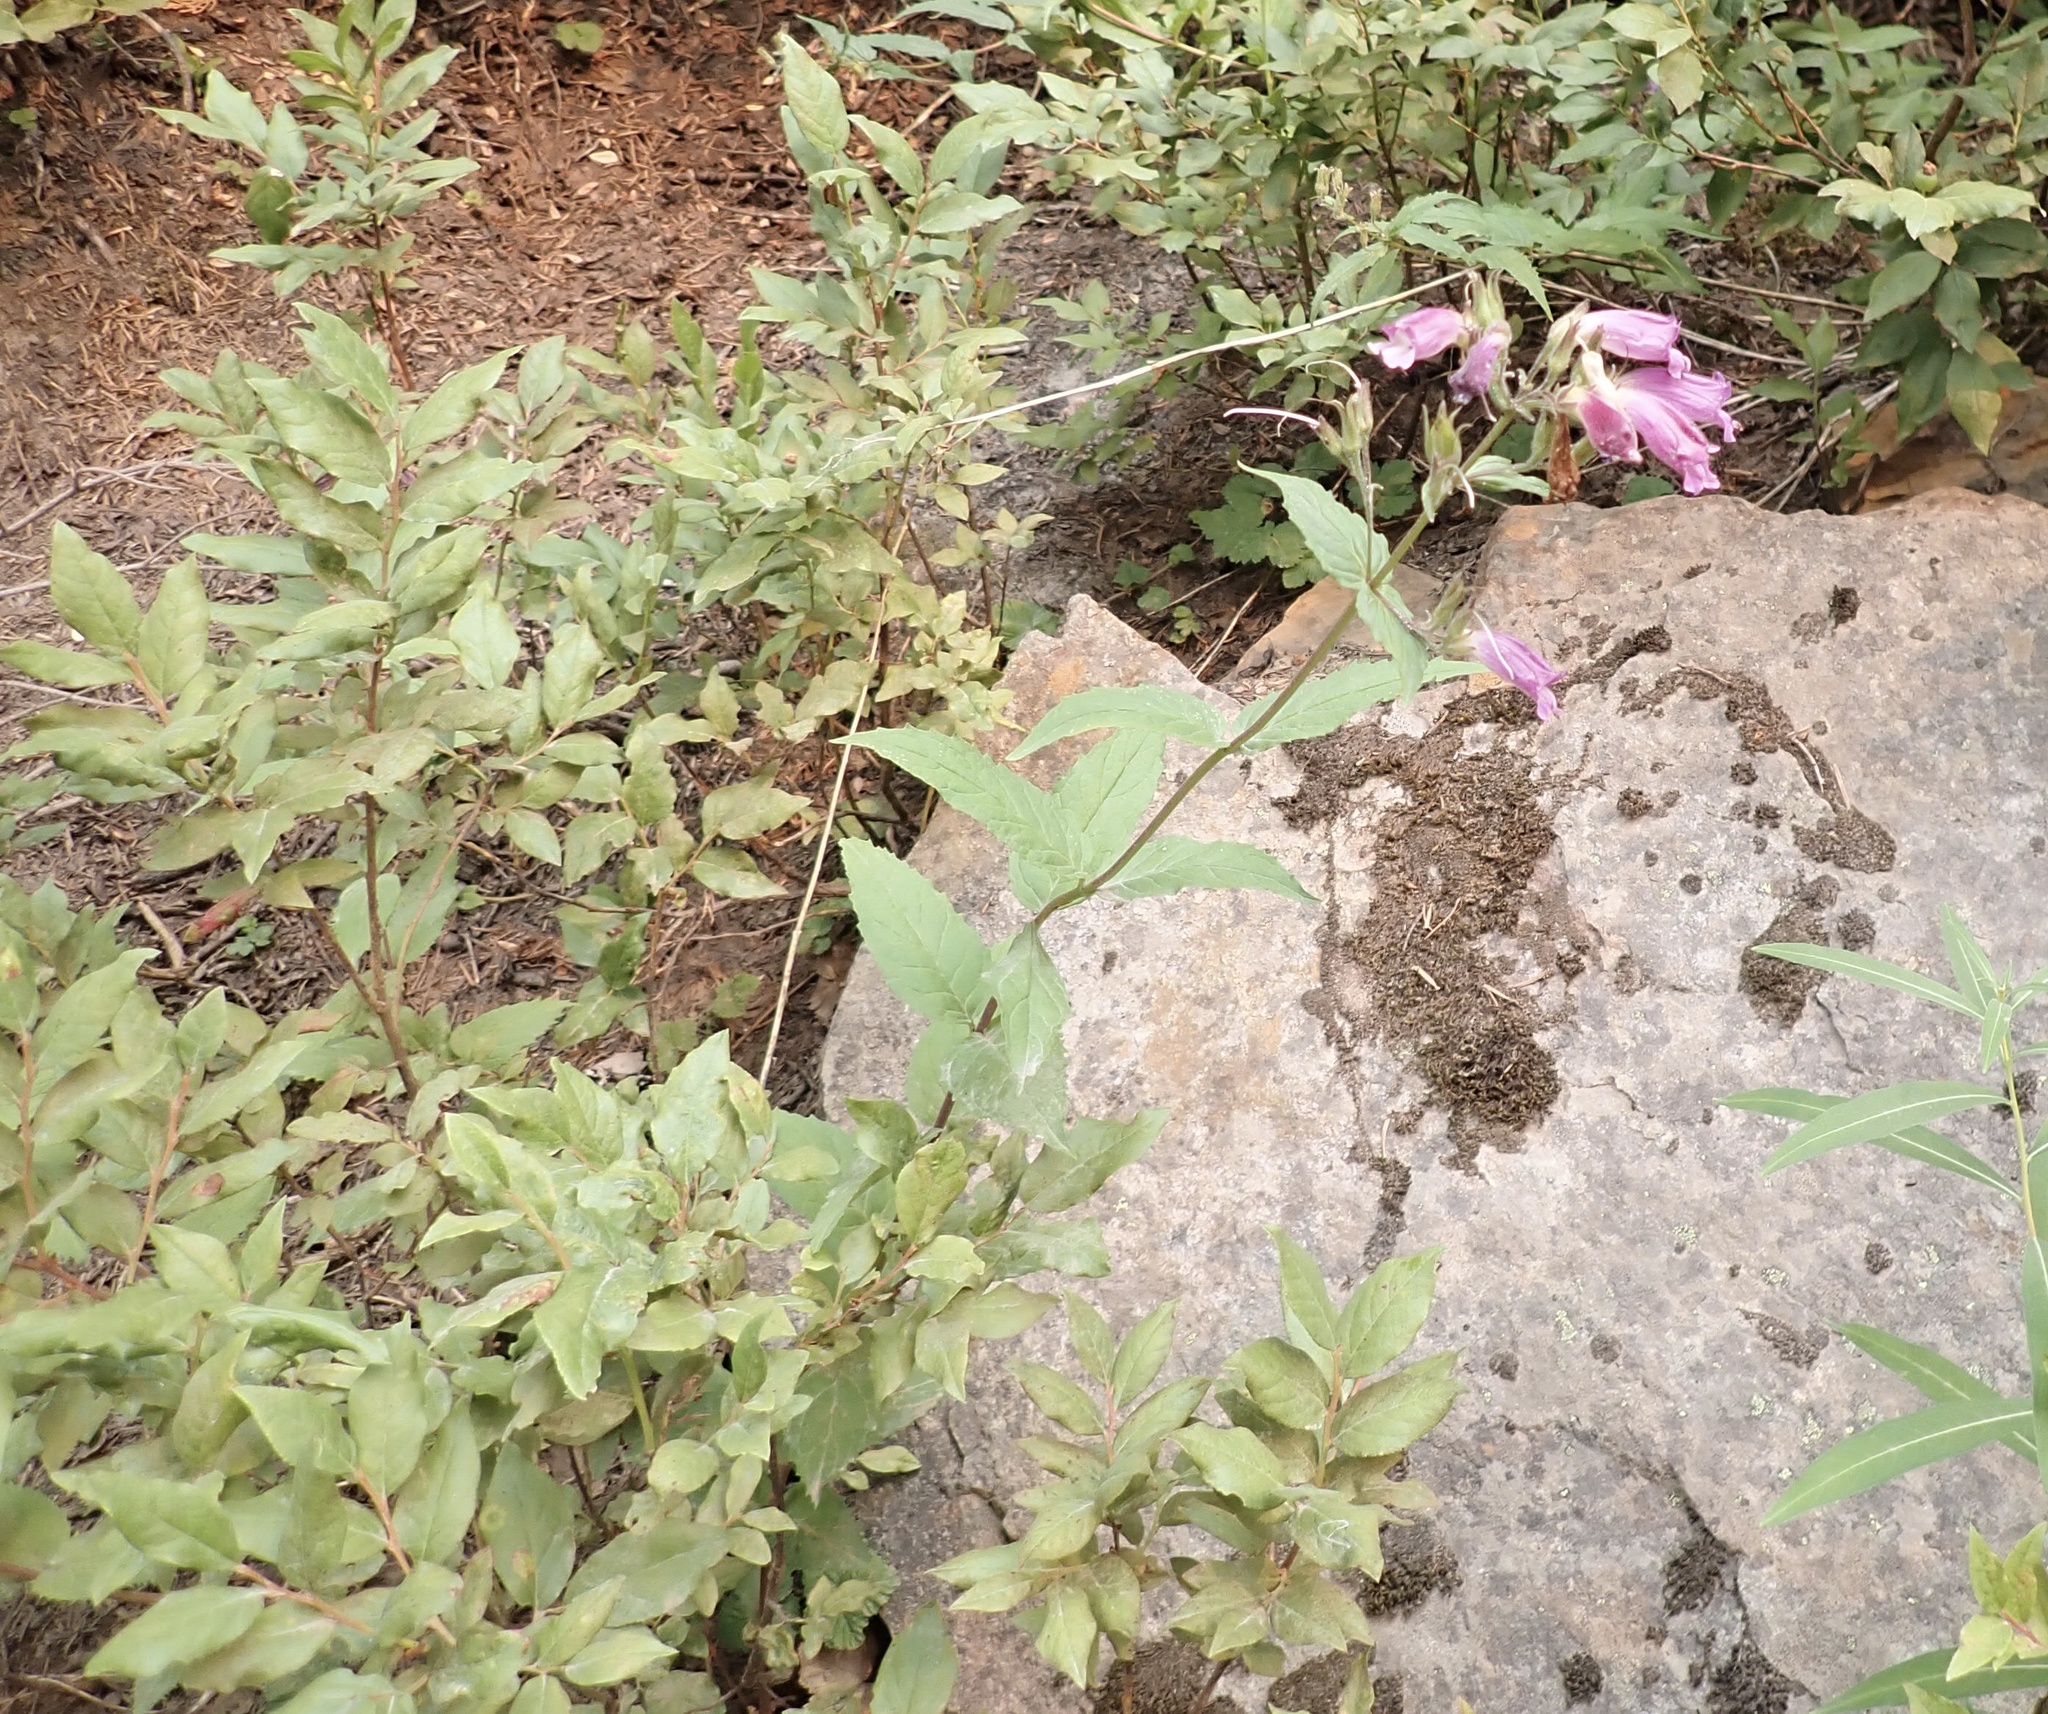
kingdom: Plantae
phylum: Tracheophyta
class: Magnoliopsida
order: Lamiales
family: Plantaginaceae
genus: Nothochelone
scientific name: Nothochelone nemorosa
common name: Woodland beardtongue
